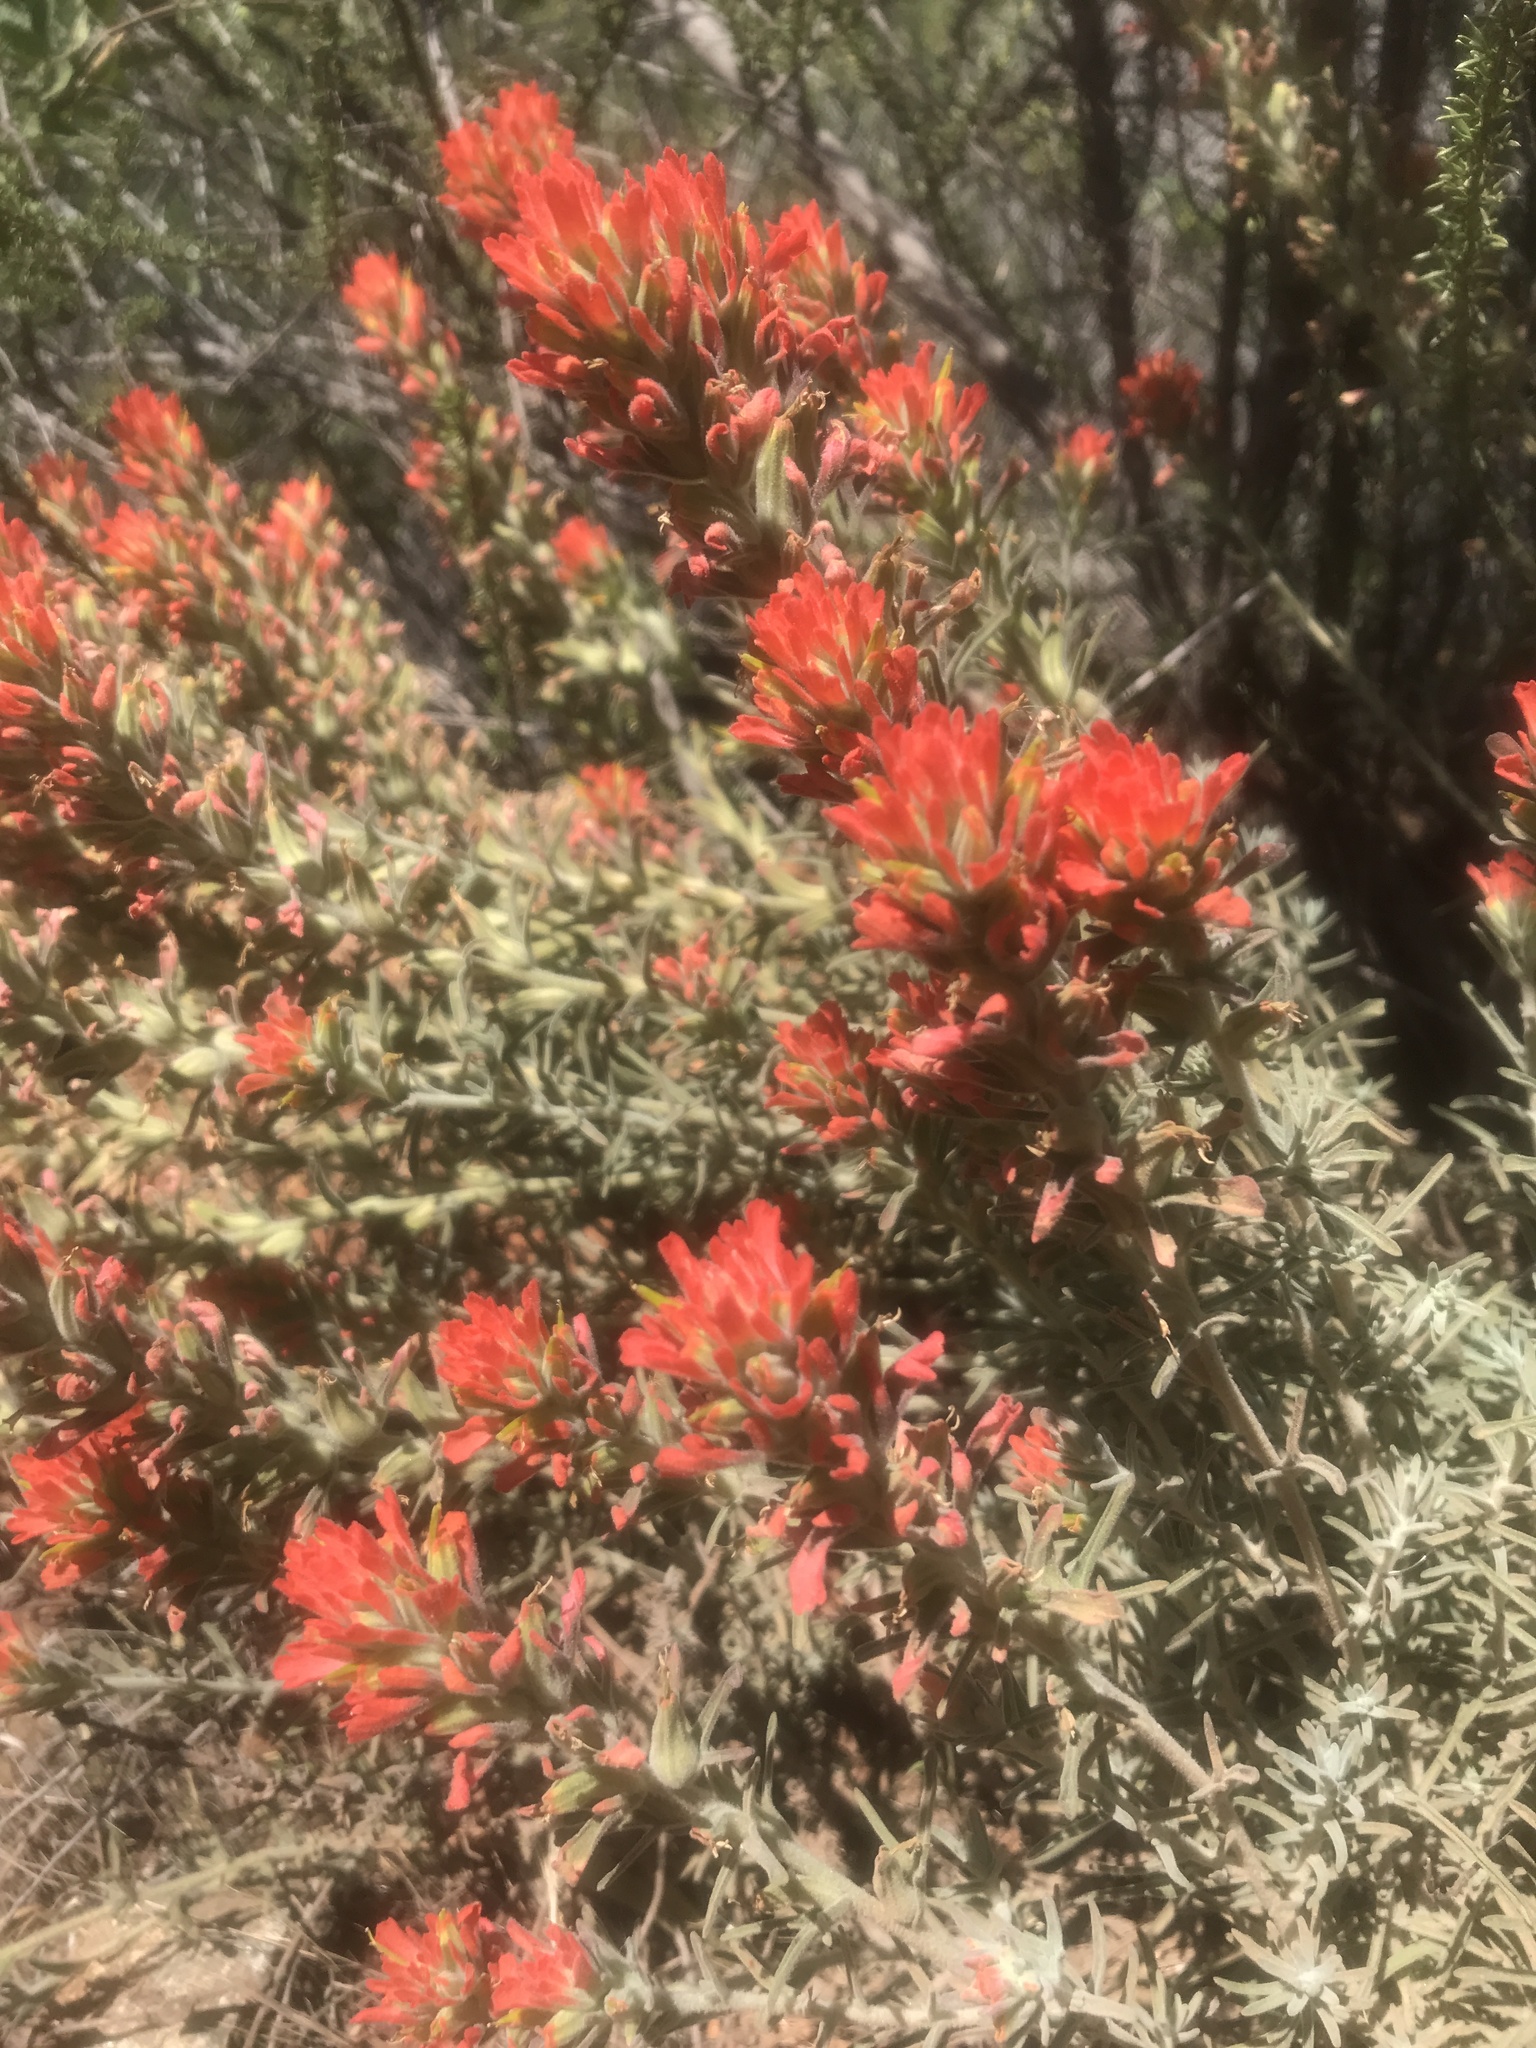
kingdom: Plantae
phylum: Tracheophyta
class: Magnoliopsida
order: Lamiales
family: Orobanchaceae
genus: Castilleja
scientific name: Castilleja foliolosa
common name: Woolly indian paintbrush
